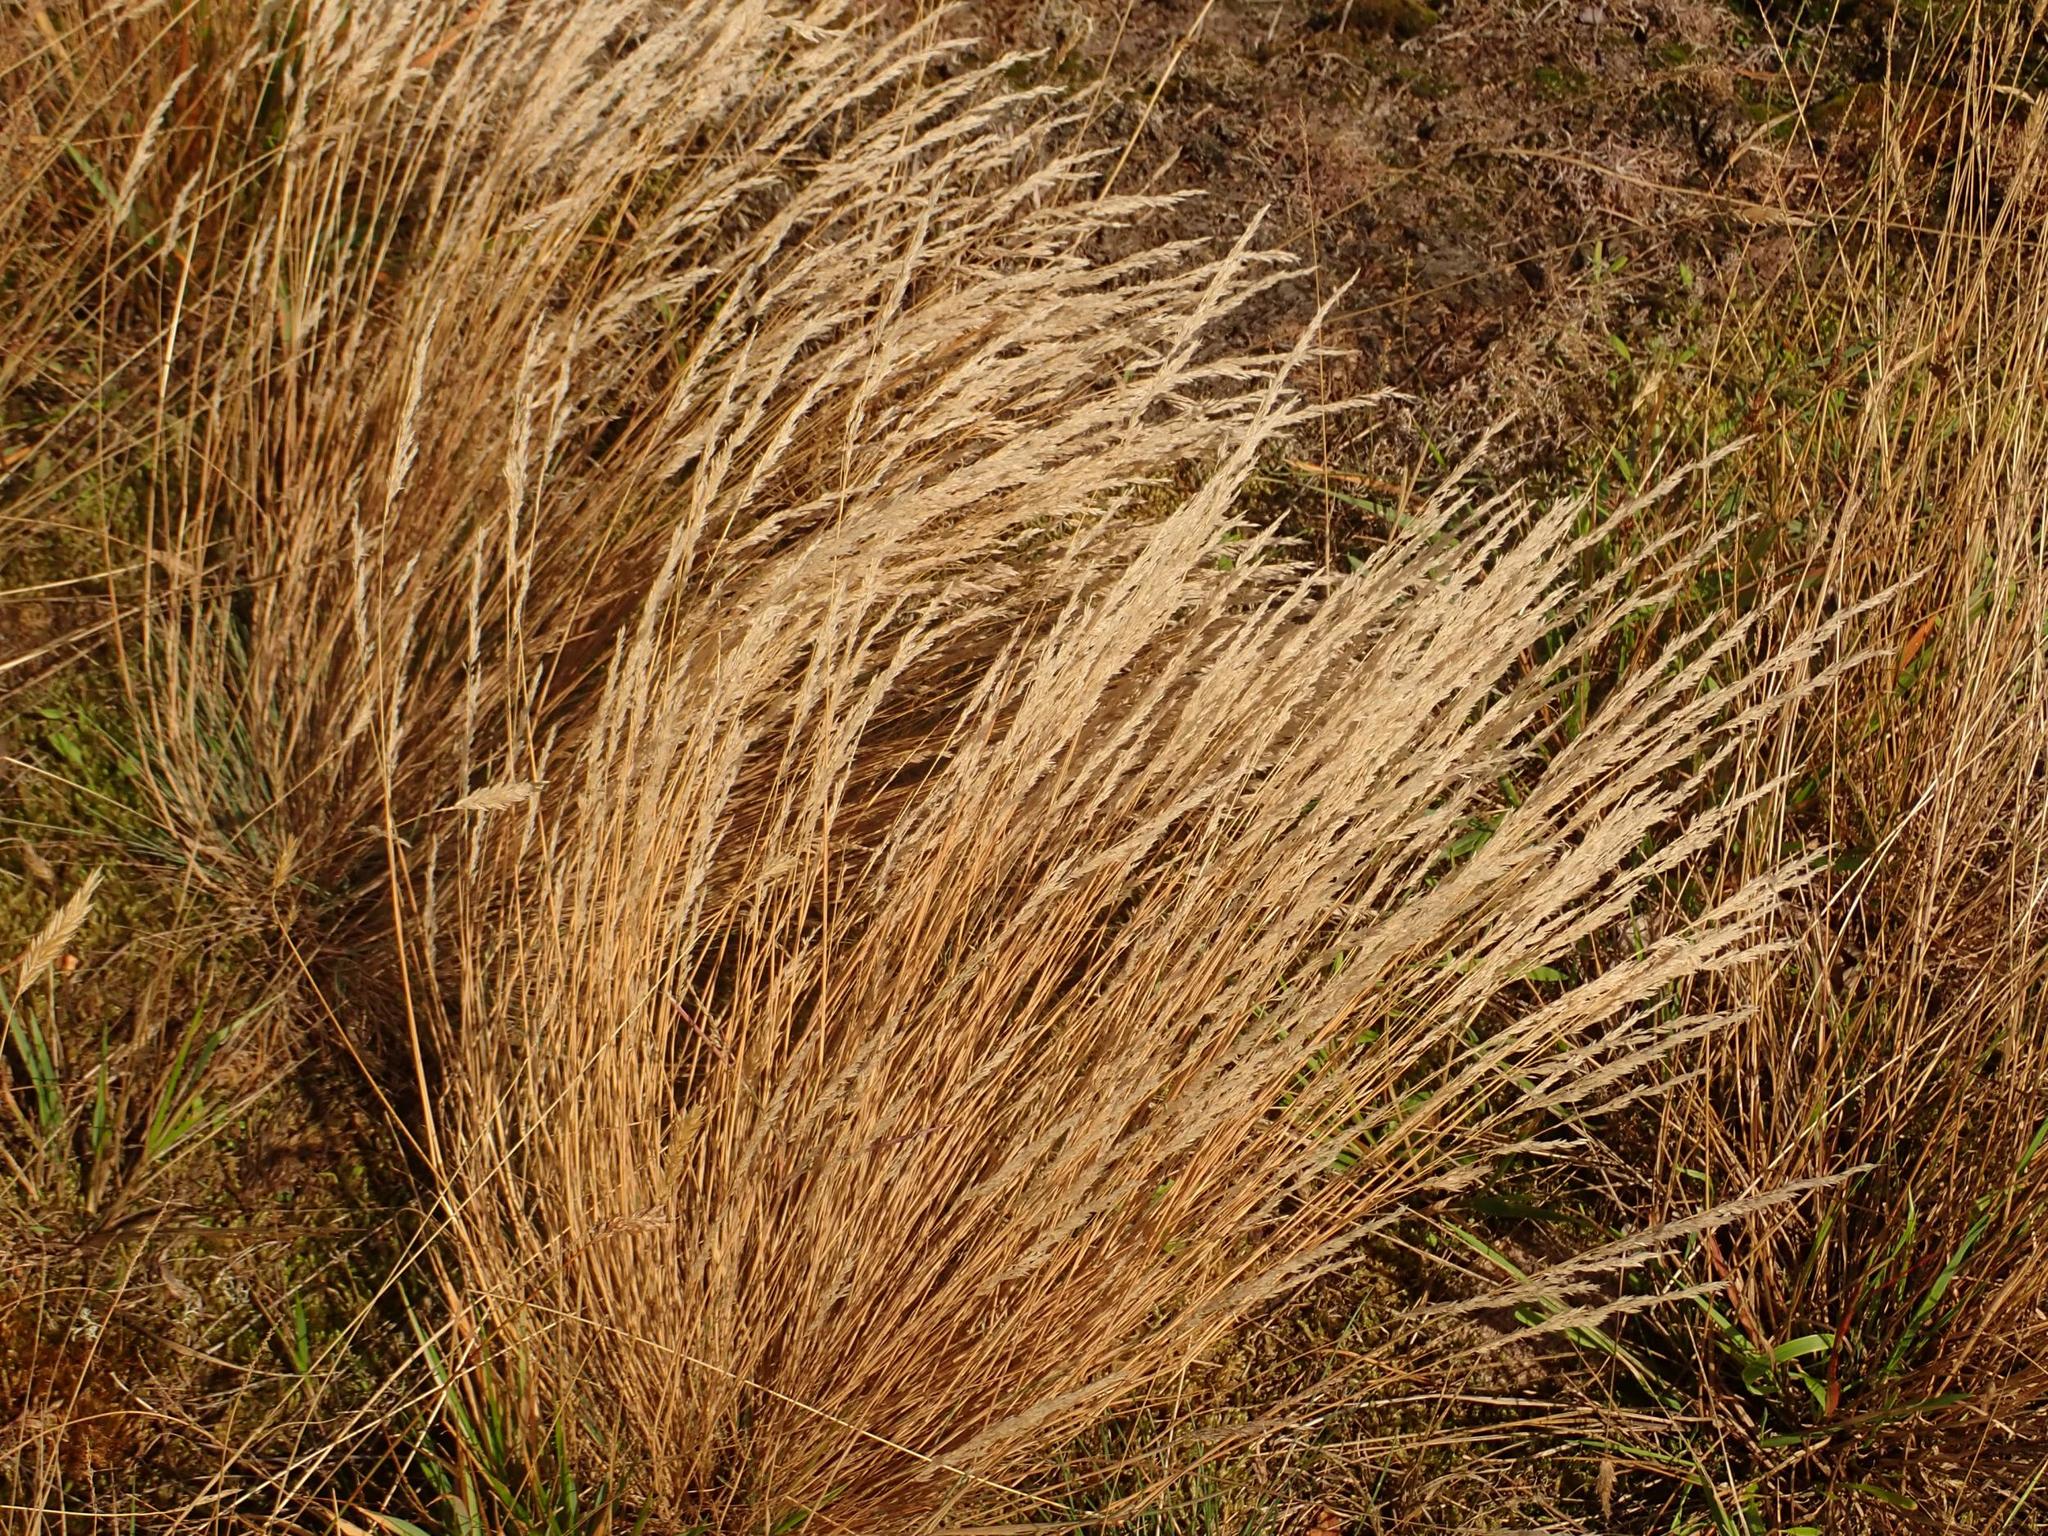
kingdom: Plantae
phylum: Tracheophyta
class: Liliopsida
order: Poales
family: Poaceae
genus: Corynephorus
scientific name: Corynephorus canescens
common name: Grey hair-grass
